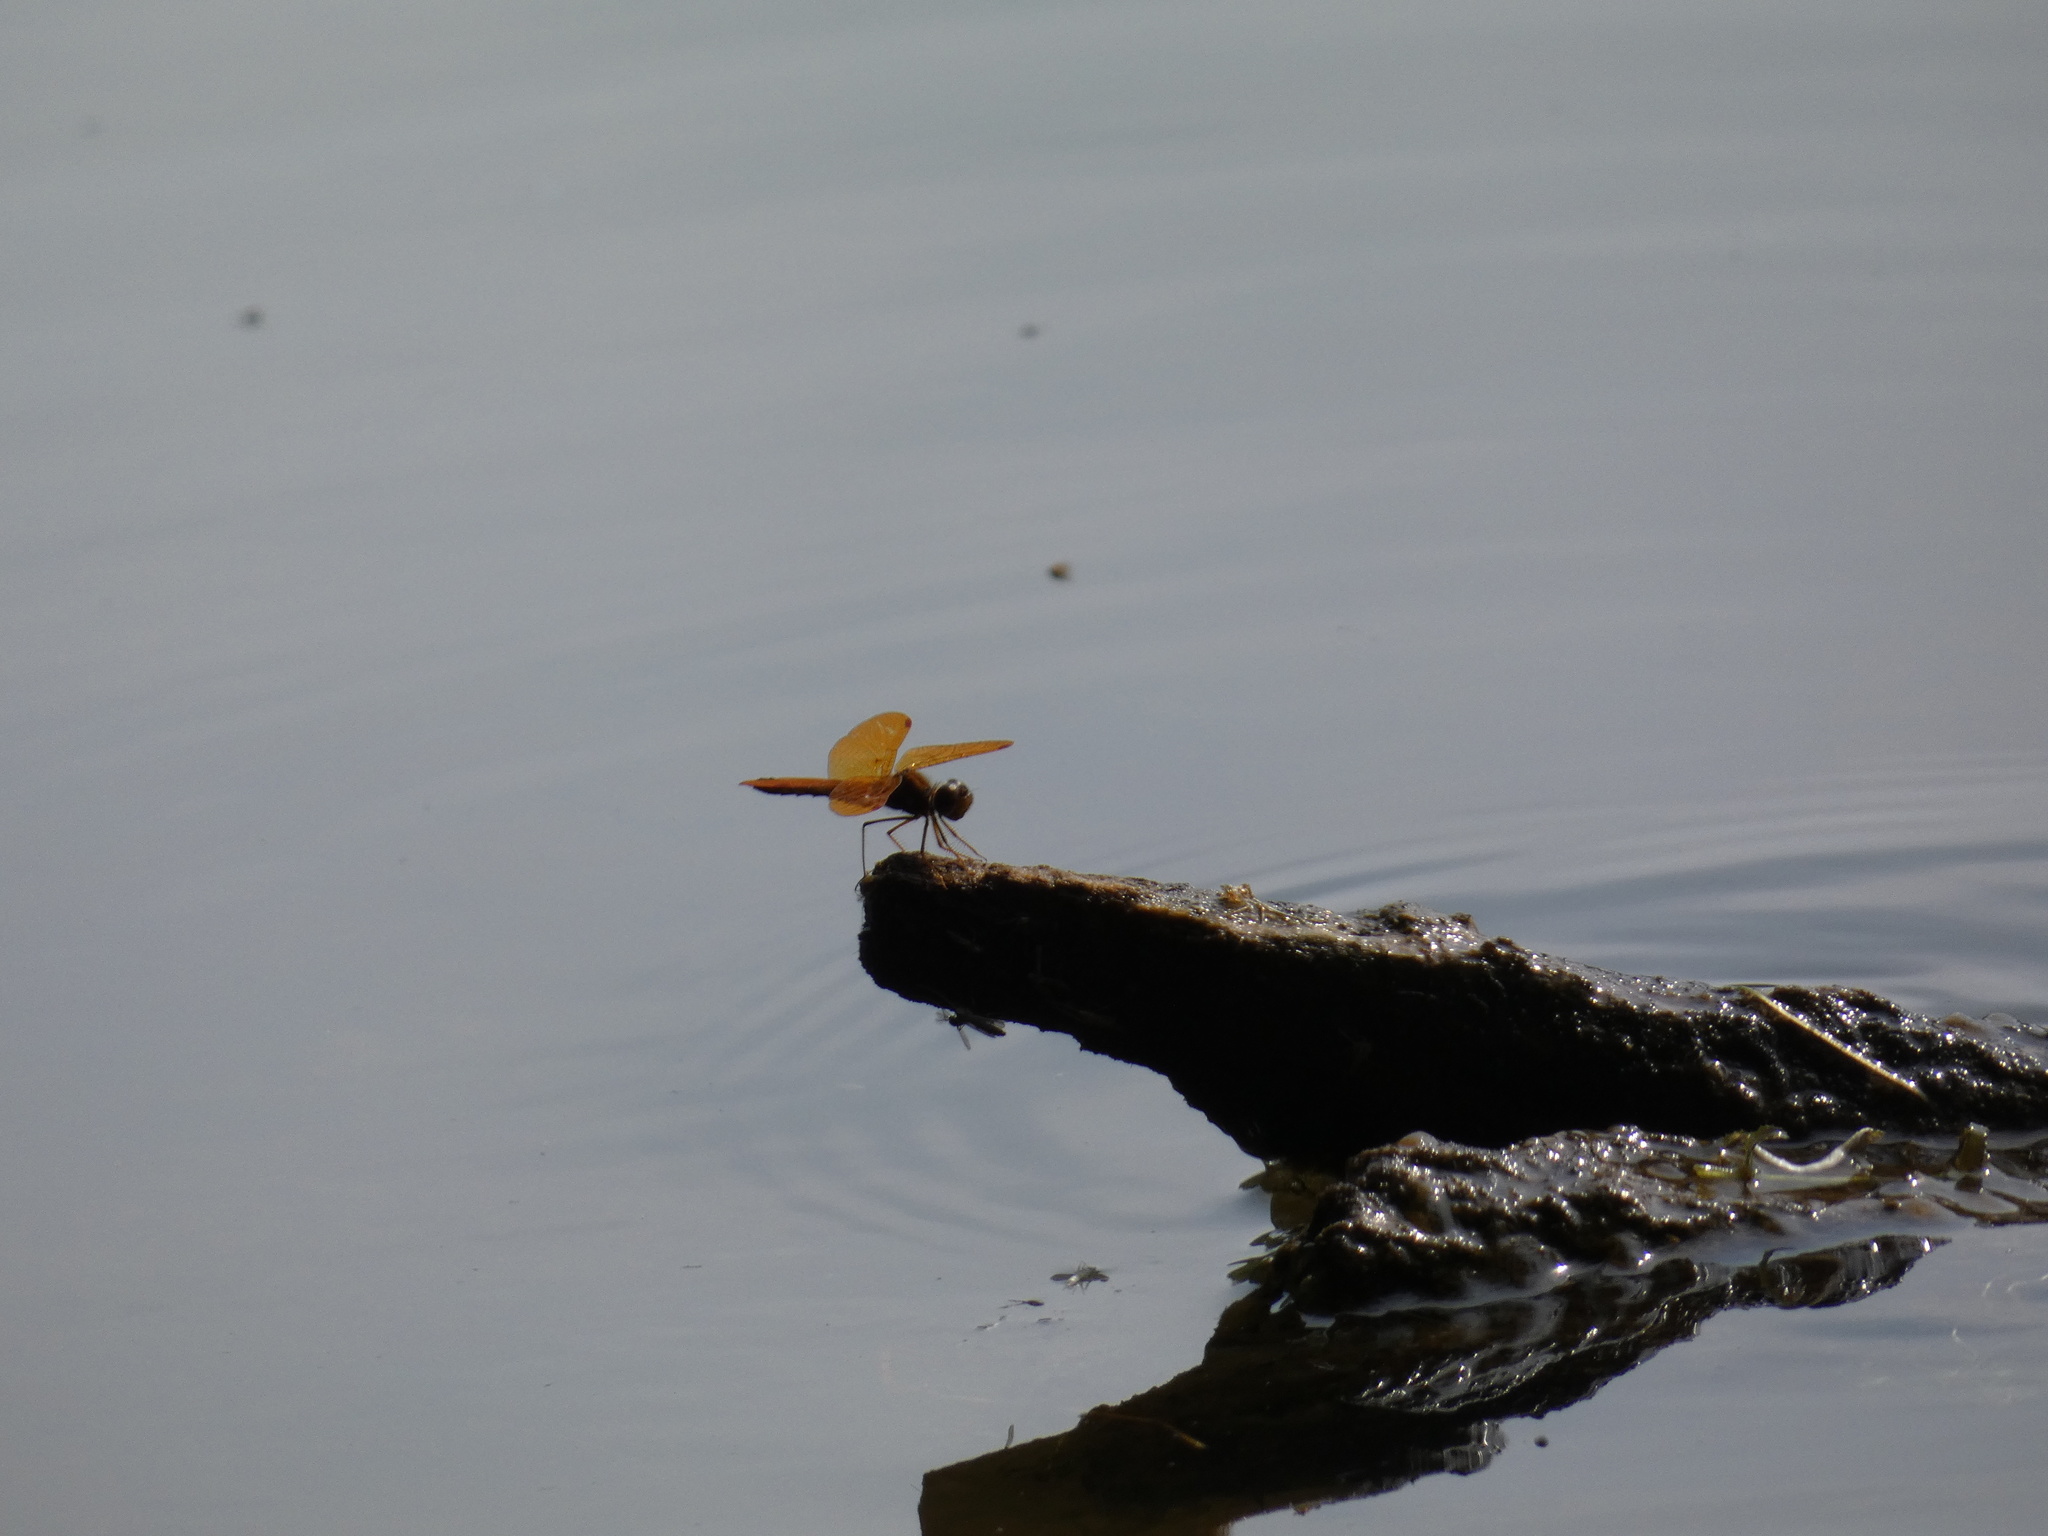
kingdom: Animalia
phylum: Arthropoda
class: Insecta
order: Odonata
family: Libellulidae
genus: Perithemis
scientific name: Perithemis tenera
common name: Eastern amberwing
